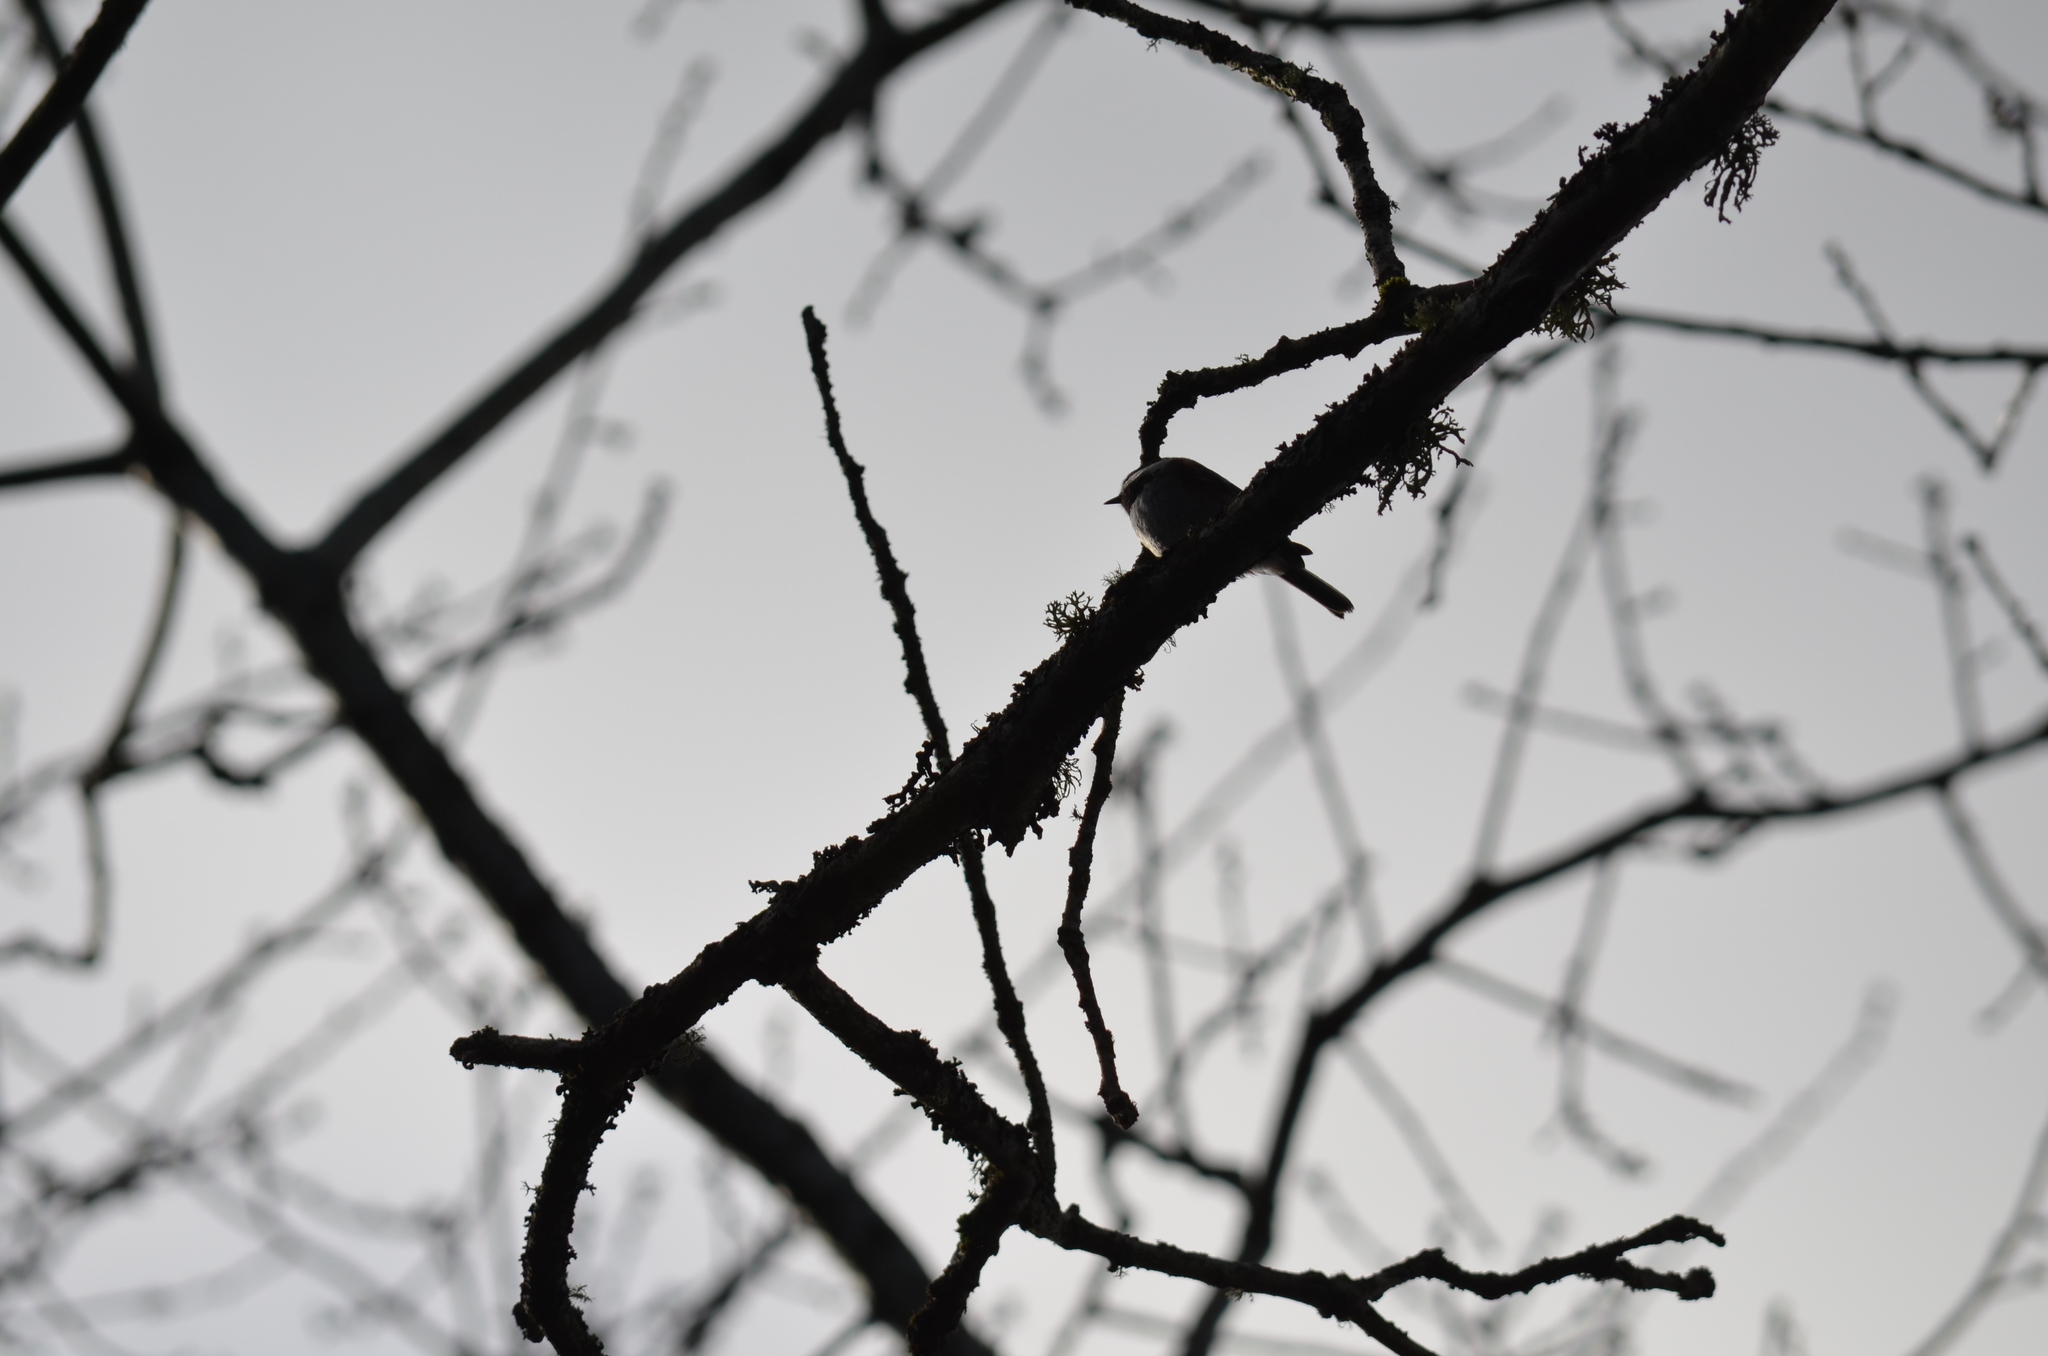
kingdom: Animalia
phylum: Chordata
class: Aves
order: Passeriformes
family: Paridae
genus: Poecile
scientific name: Poecile rufescens
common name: Chestnut-backed chickadee
